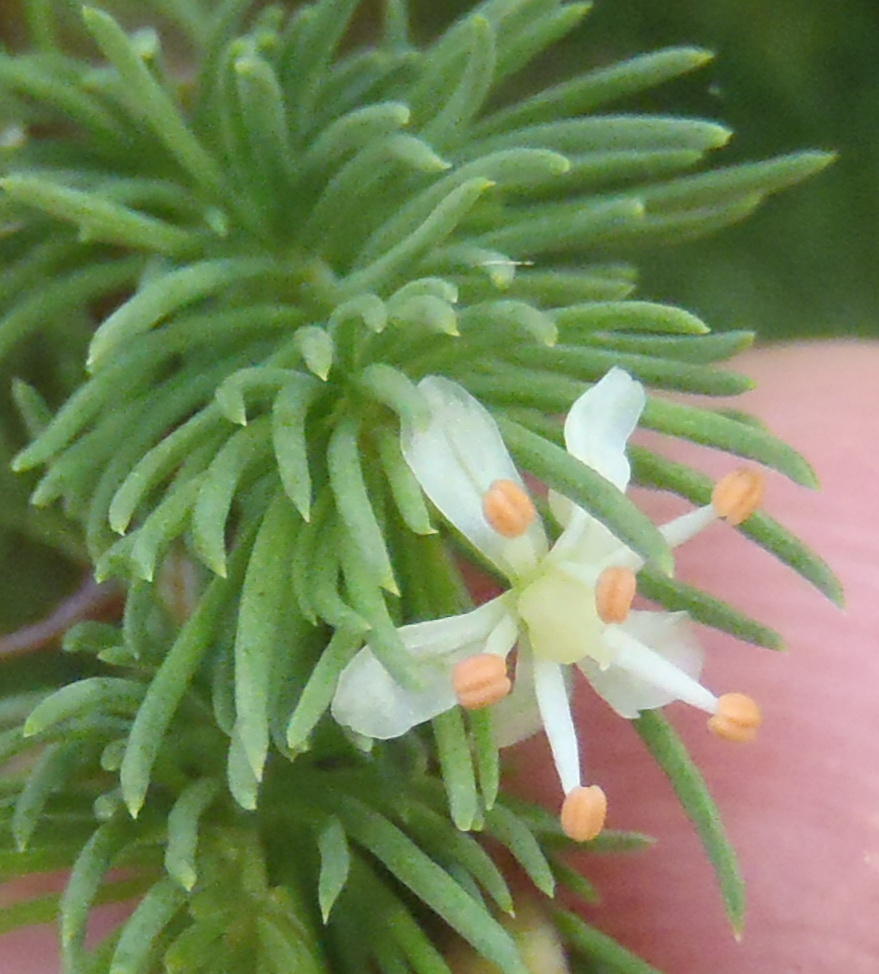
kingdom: Plantae
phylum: Tracheophyta
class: Liliopsida
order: Asparagales
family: Asparagaceae
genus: Asparagus
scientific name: Asparagus rubicundus
